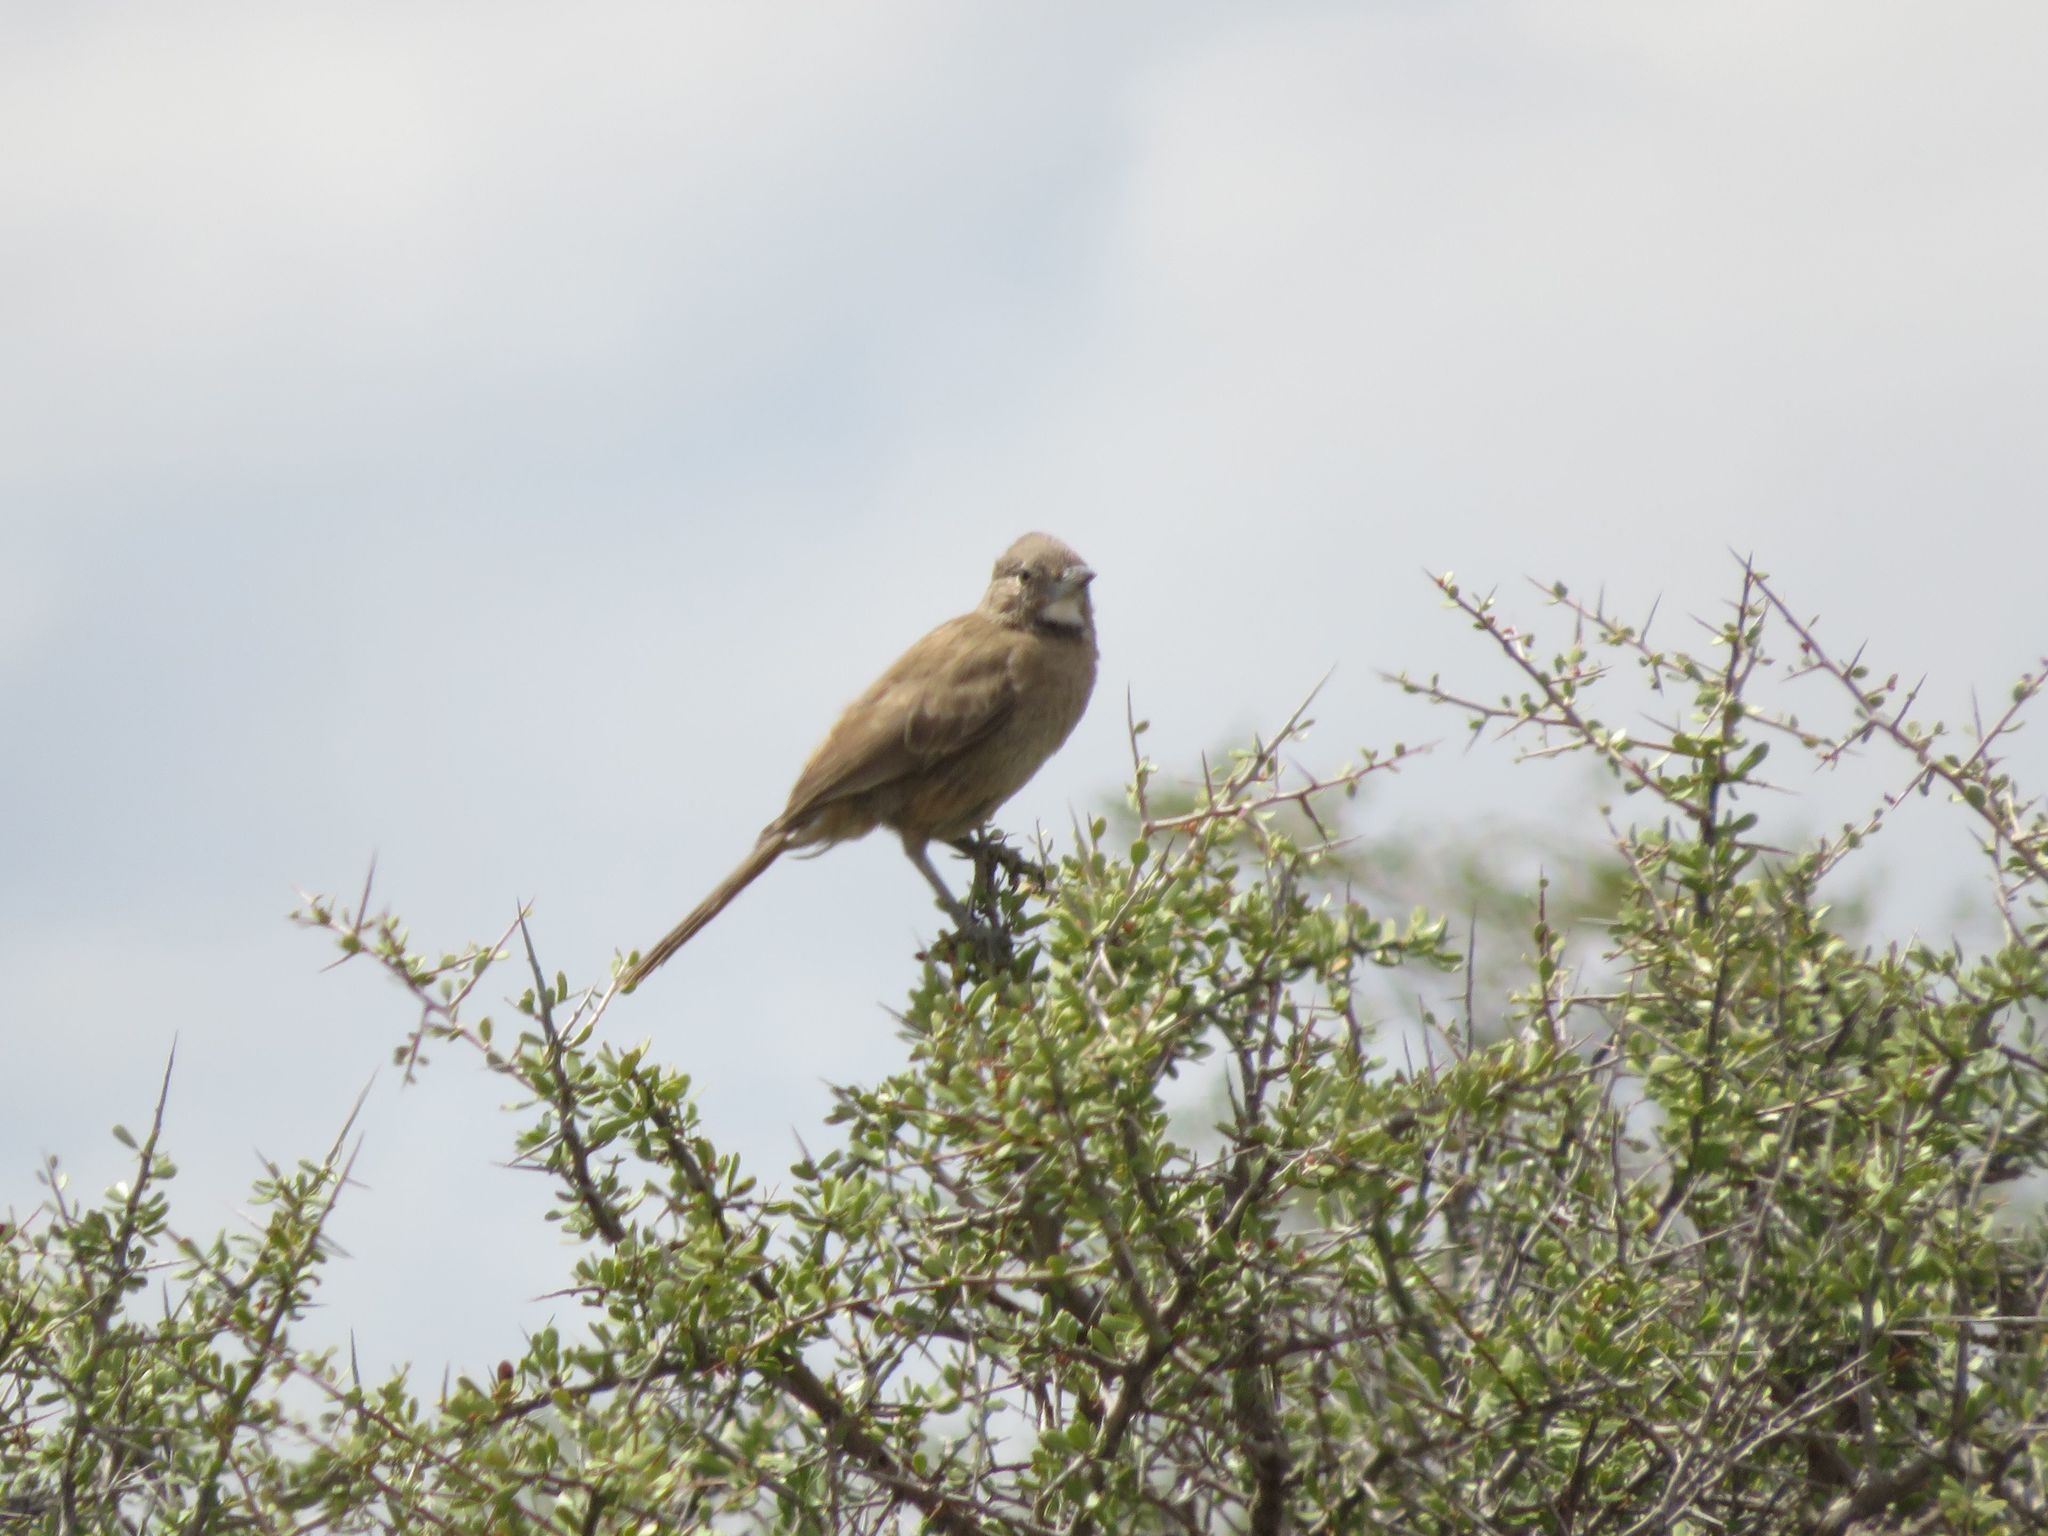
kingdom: Animalia
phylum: Chordata
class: Aves
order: Passeriformes
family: Furnariidae
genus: Pseudoseisura
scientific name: Pseudoseisura gutturalis
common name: White-throated cacholote
